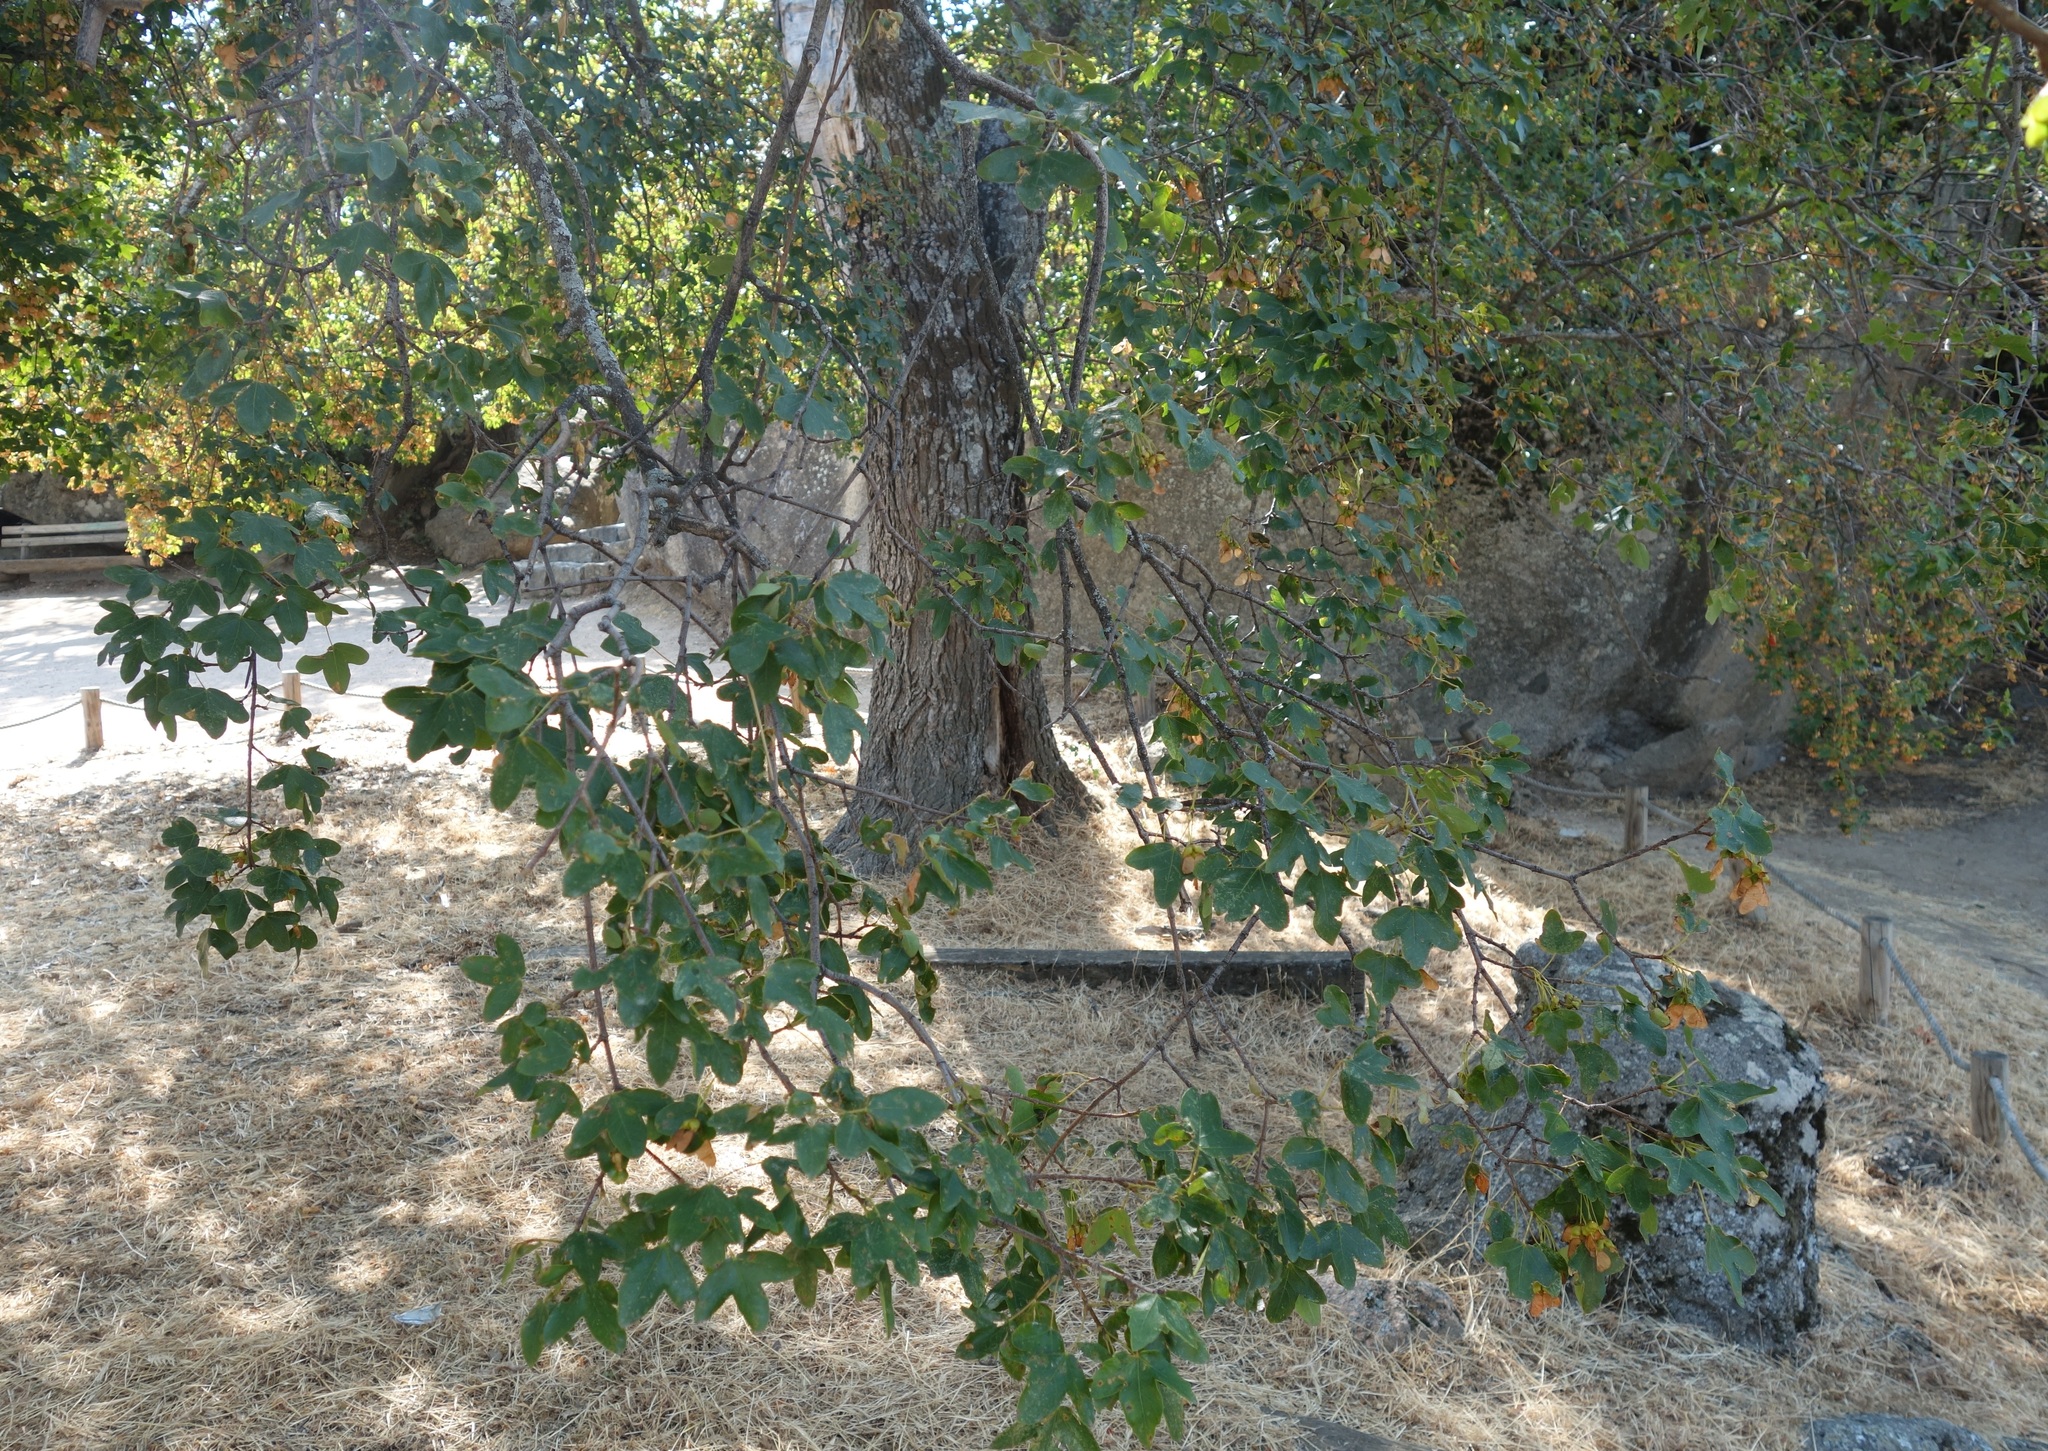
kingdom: Plantae
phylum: Tracheophyta
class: Magnoliopsida
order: Sapindales
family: Sapindaceae
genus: Acer
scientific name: Acer monspessulanum
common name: Montpellier maple
